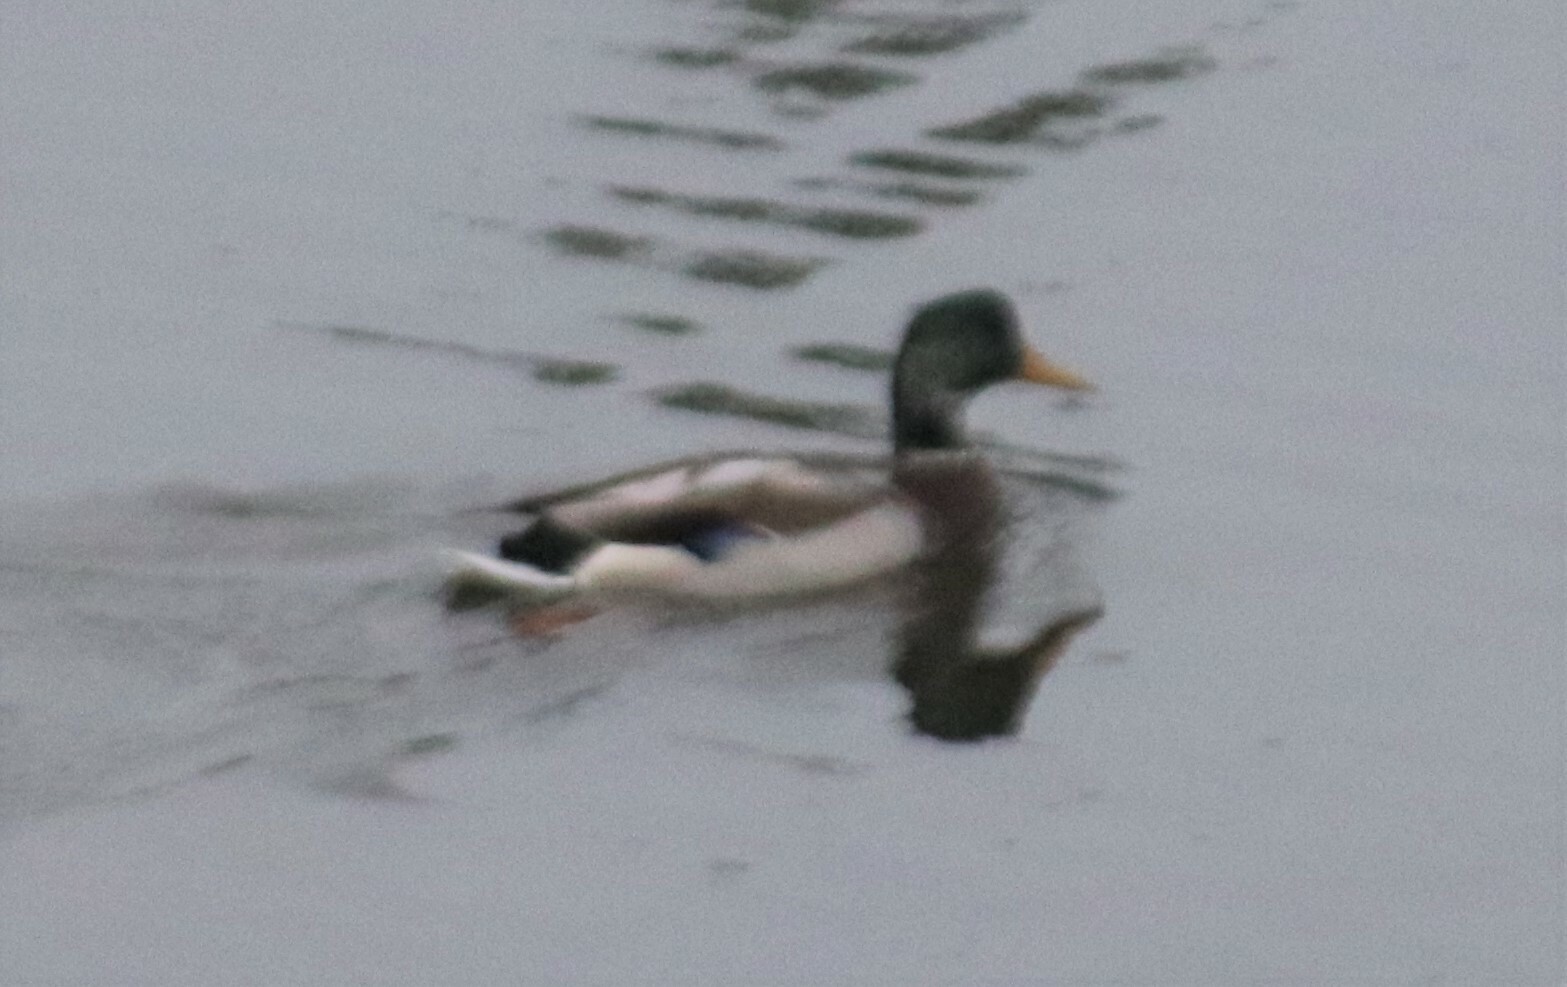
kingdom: Animalia
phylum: Chordata
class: Aves
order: Anseriformes
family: Anatidae
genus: Anas
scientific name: Anas platyrhynchos
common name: Mallard
